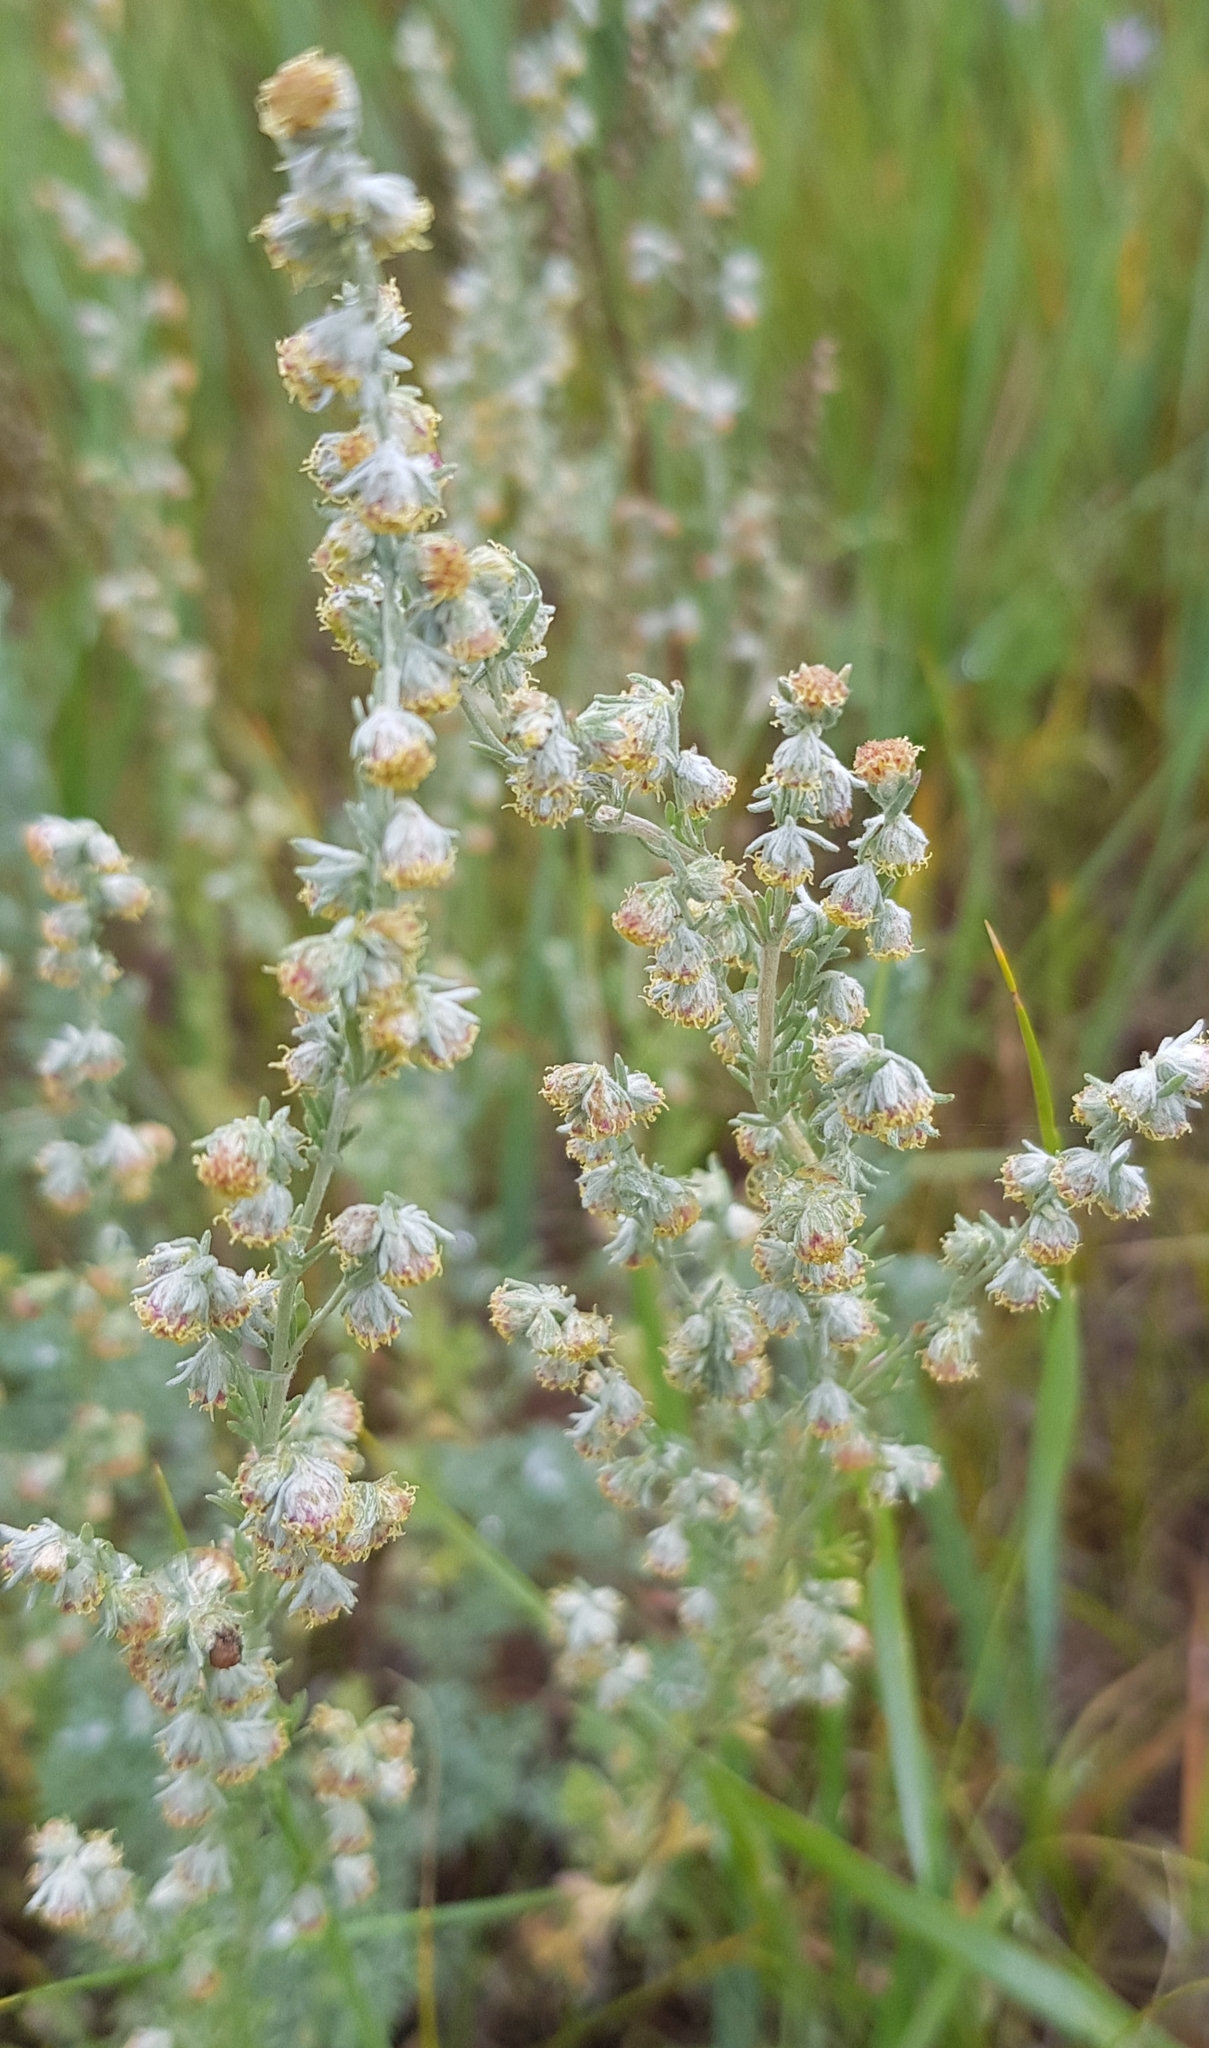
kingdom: Plantae
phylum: Tracheophyta
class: Magnoliopsida
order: Asterales
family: Asteraceae
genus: Artemisia
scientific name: Artemisia frigida
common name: Prairie sagewort
